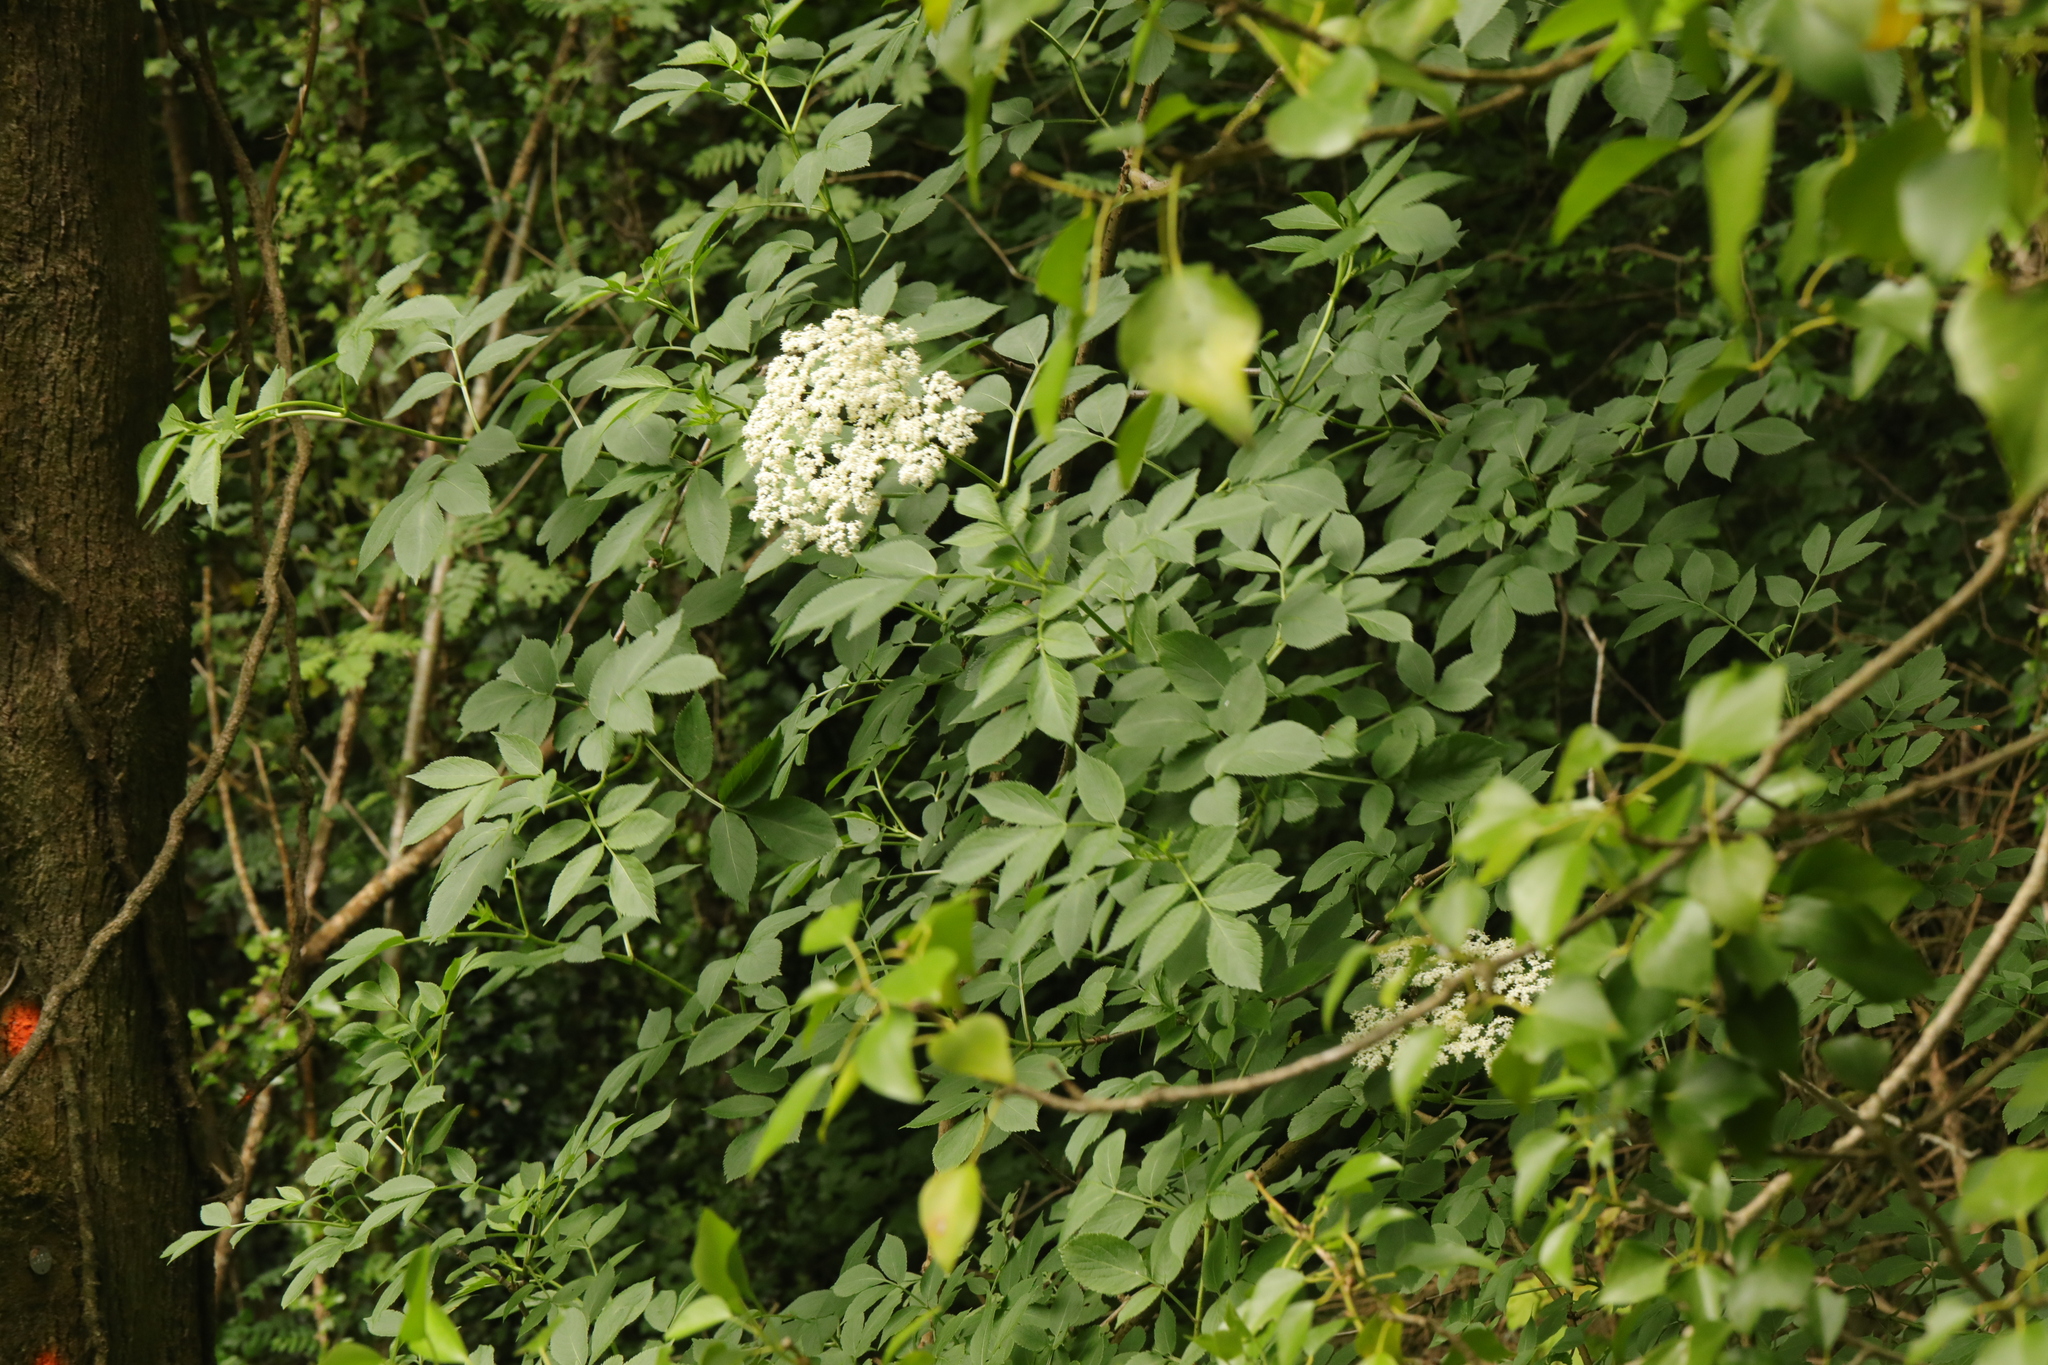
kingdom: Plantae
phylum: Tracheophyta
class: Magnoliopsida
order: Dipsacales
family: Viburnaceae
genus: Sambucus
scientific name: Sambucus nigra
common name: Elder
